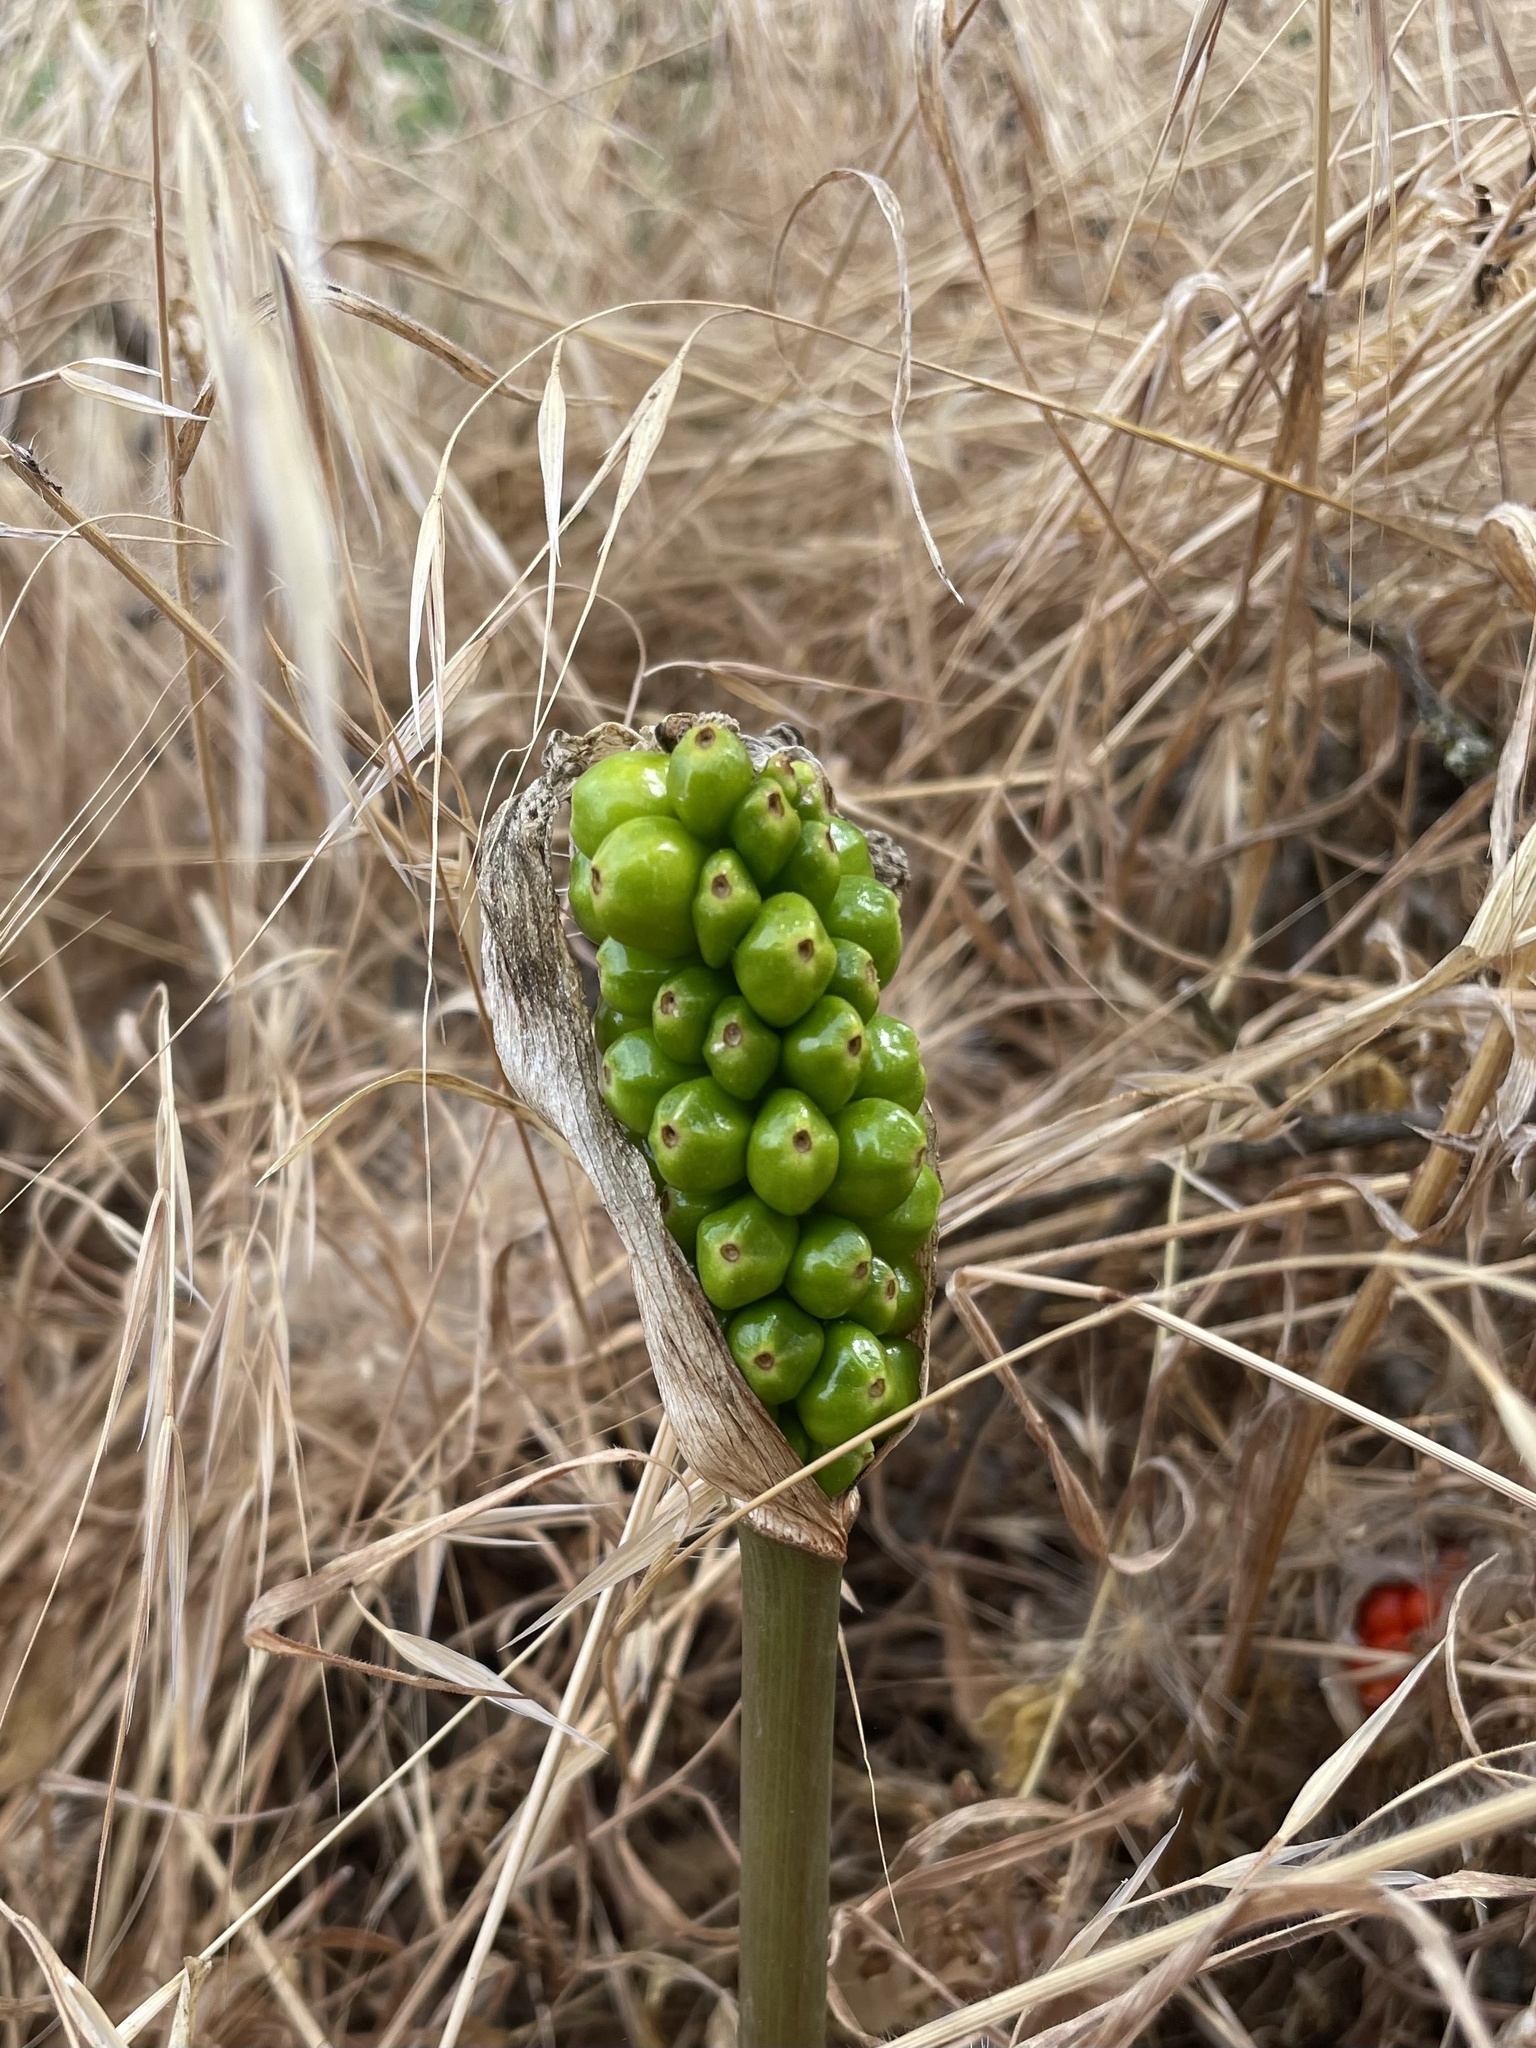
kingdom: Plantae
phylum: Tracheophyta
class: Liliopsida
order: Alismatales
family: Araceae
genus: Arum
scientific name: Arum italicum
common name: Italian lords-and-ladies
